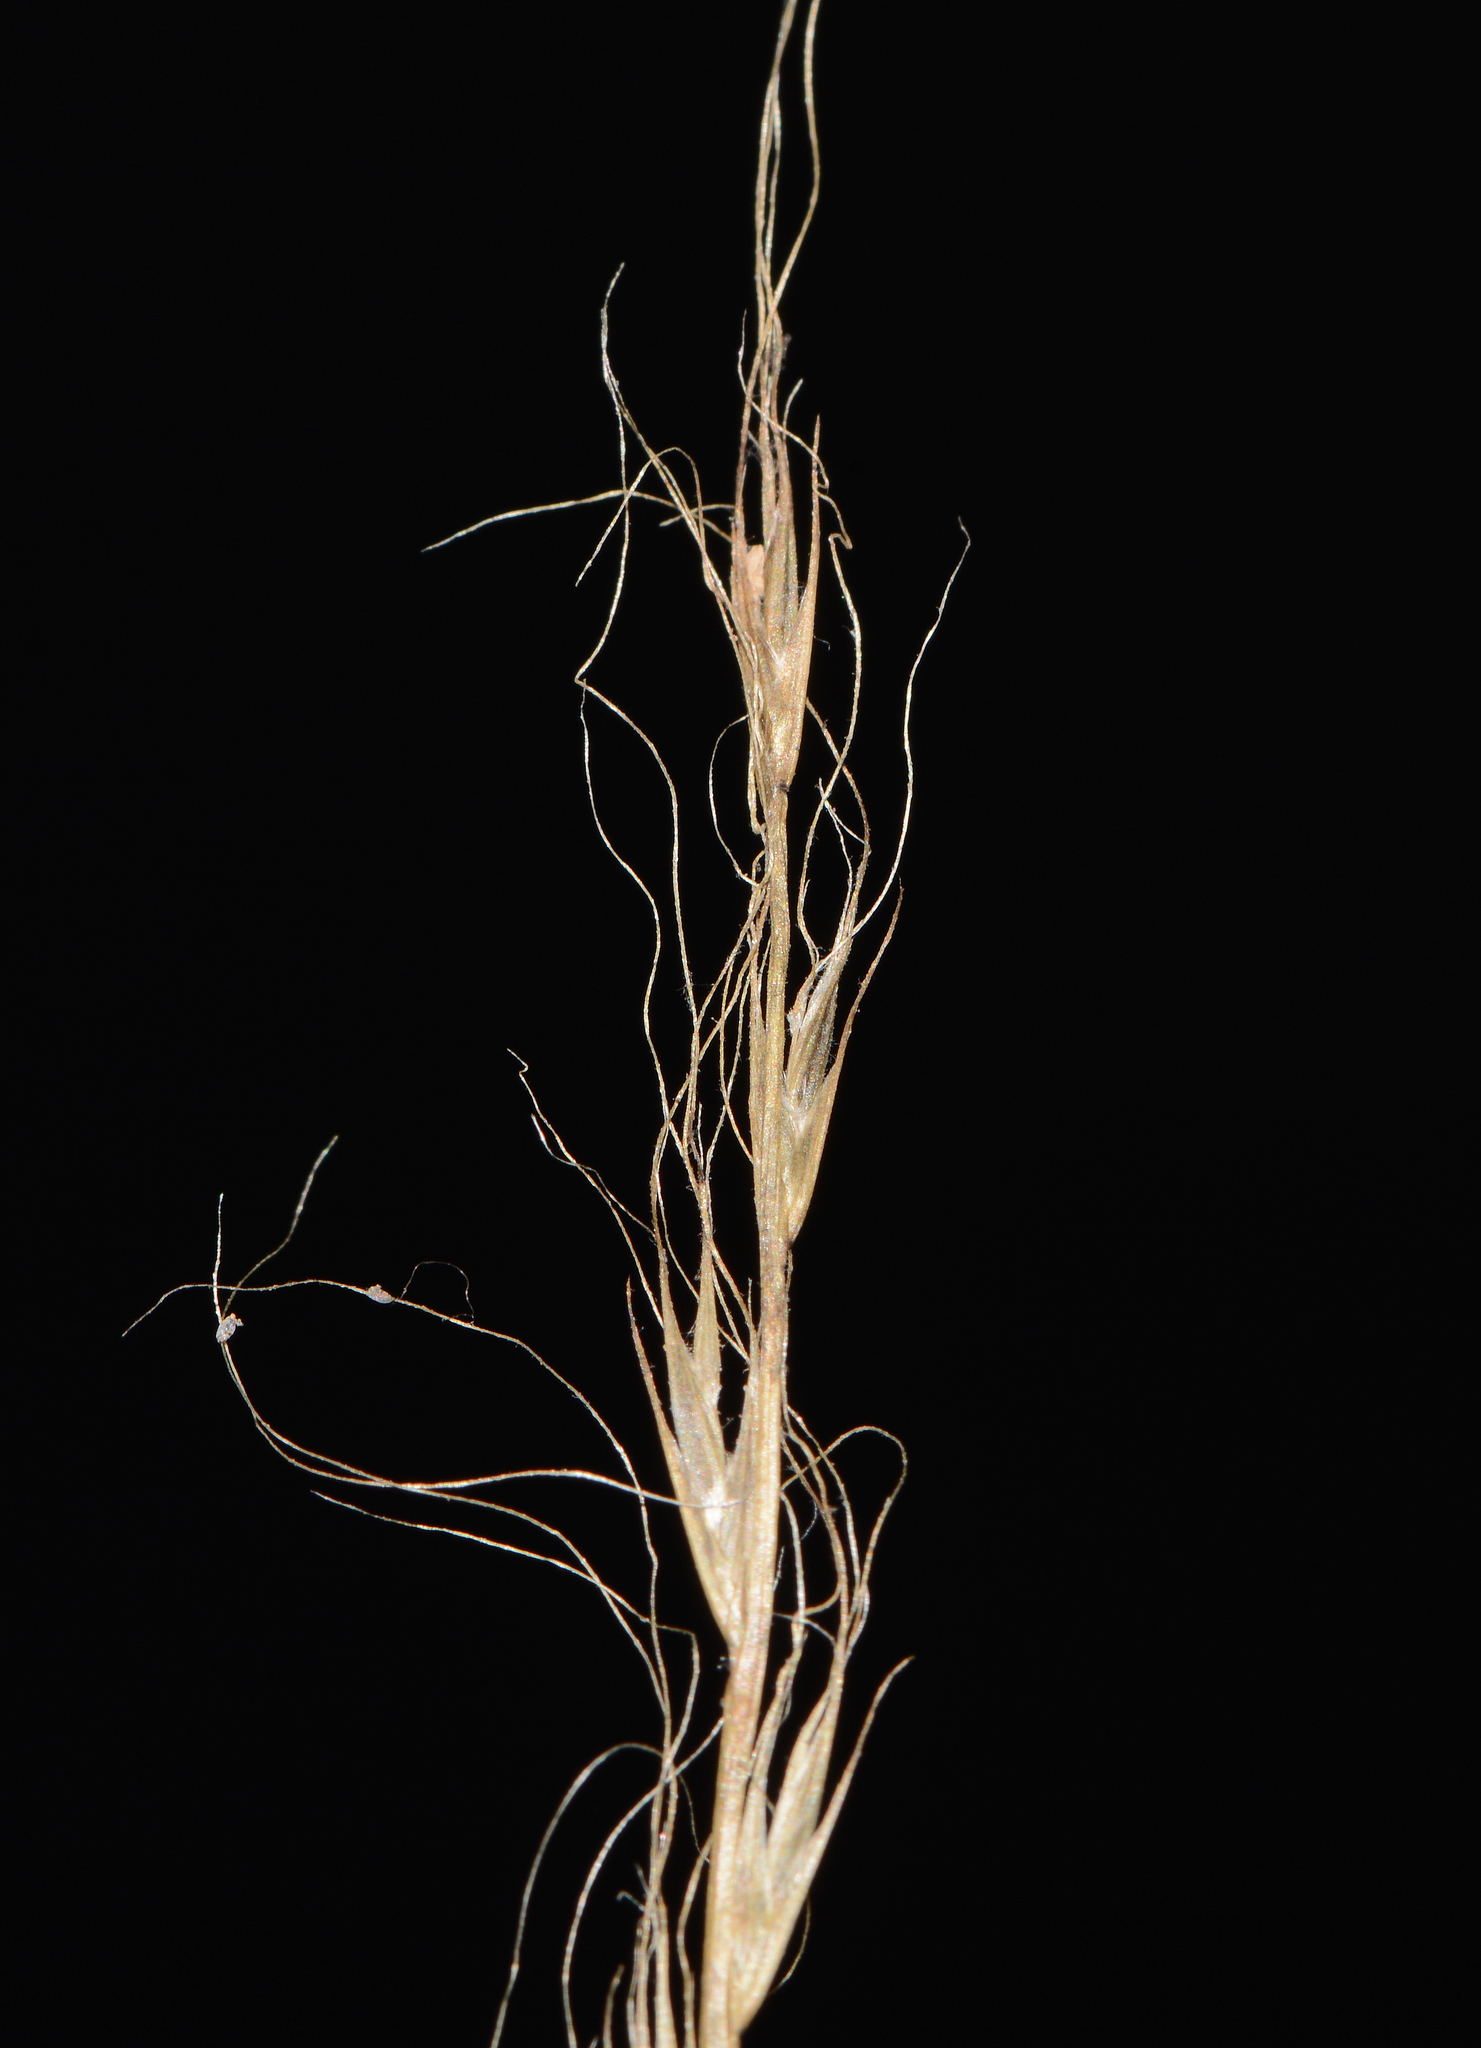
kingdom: Plantae
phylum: Tracheophyta
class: Liliopsida
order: Poales
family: Poaceae
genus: Tripogon
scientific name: Tripogon capillatus
